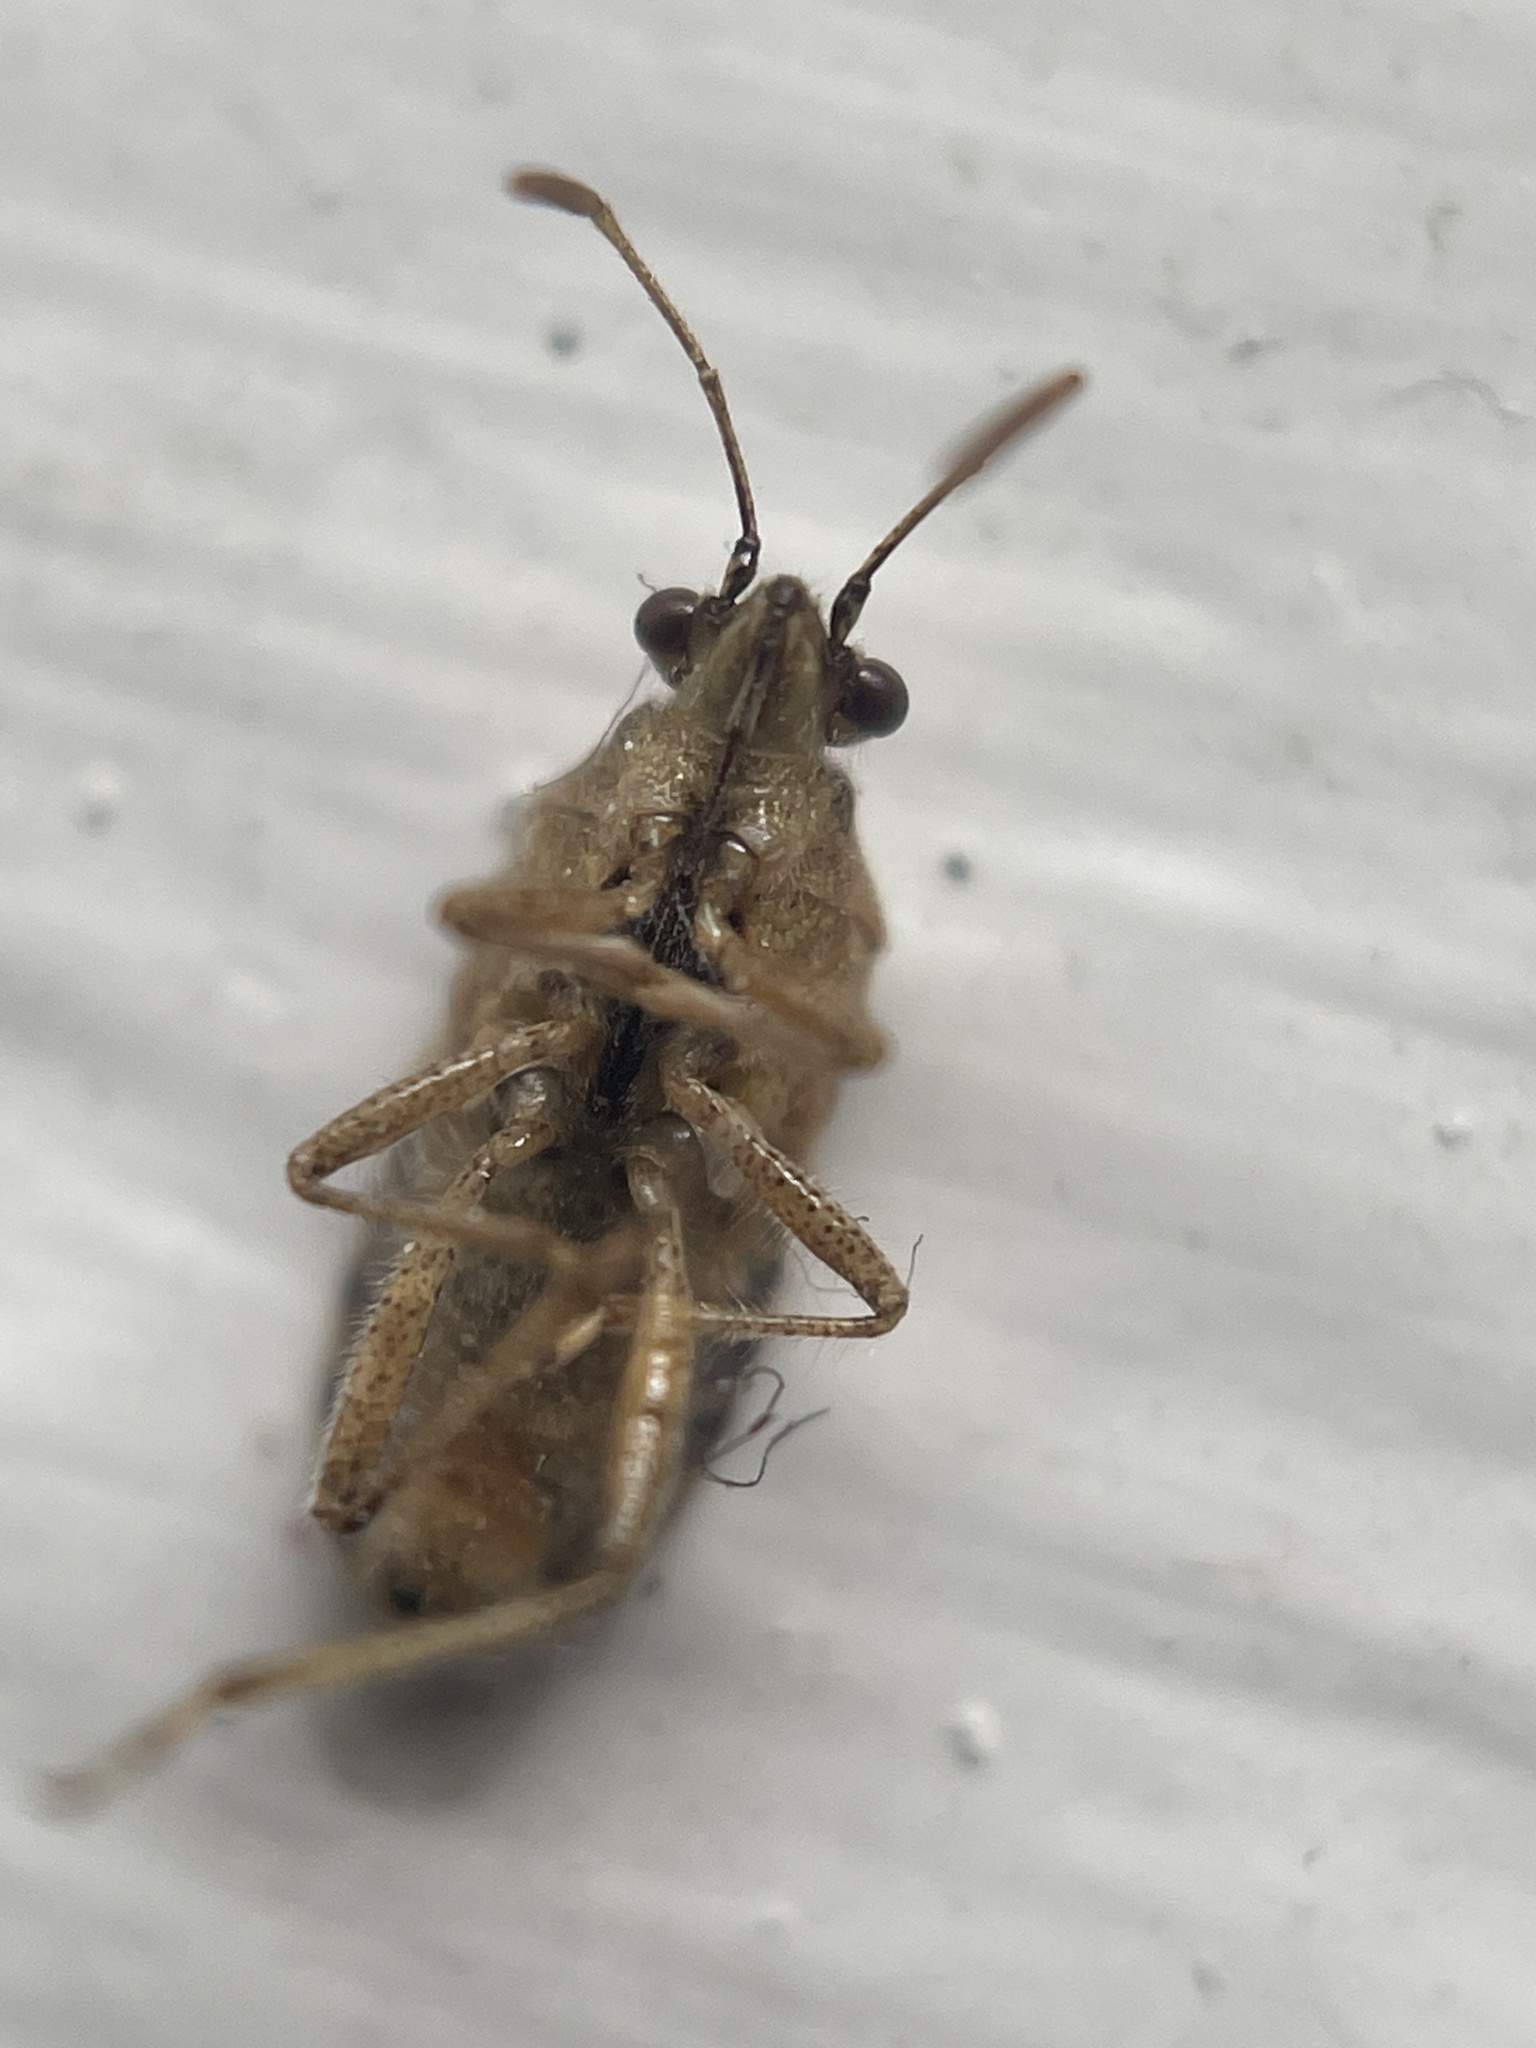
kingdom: Animalia
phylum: Arthropoda
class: Insecta
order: Hemiptera
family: Rhopalidae
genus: Liorhyssus
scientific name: Liorhyssus hyalinus
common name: Scentless plant bug
